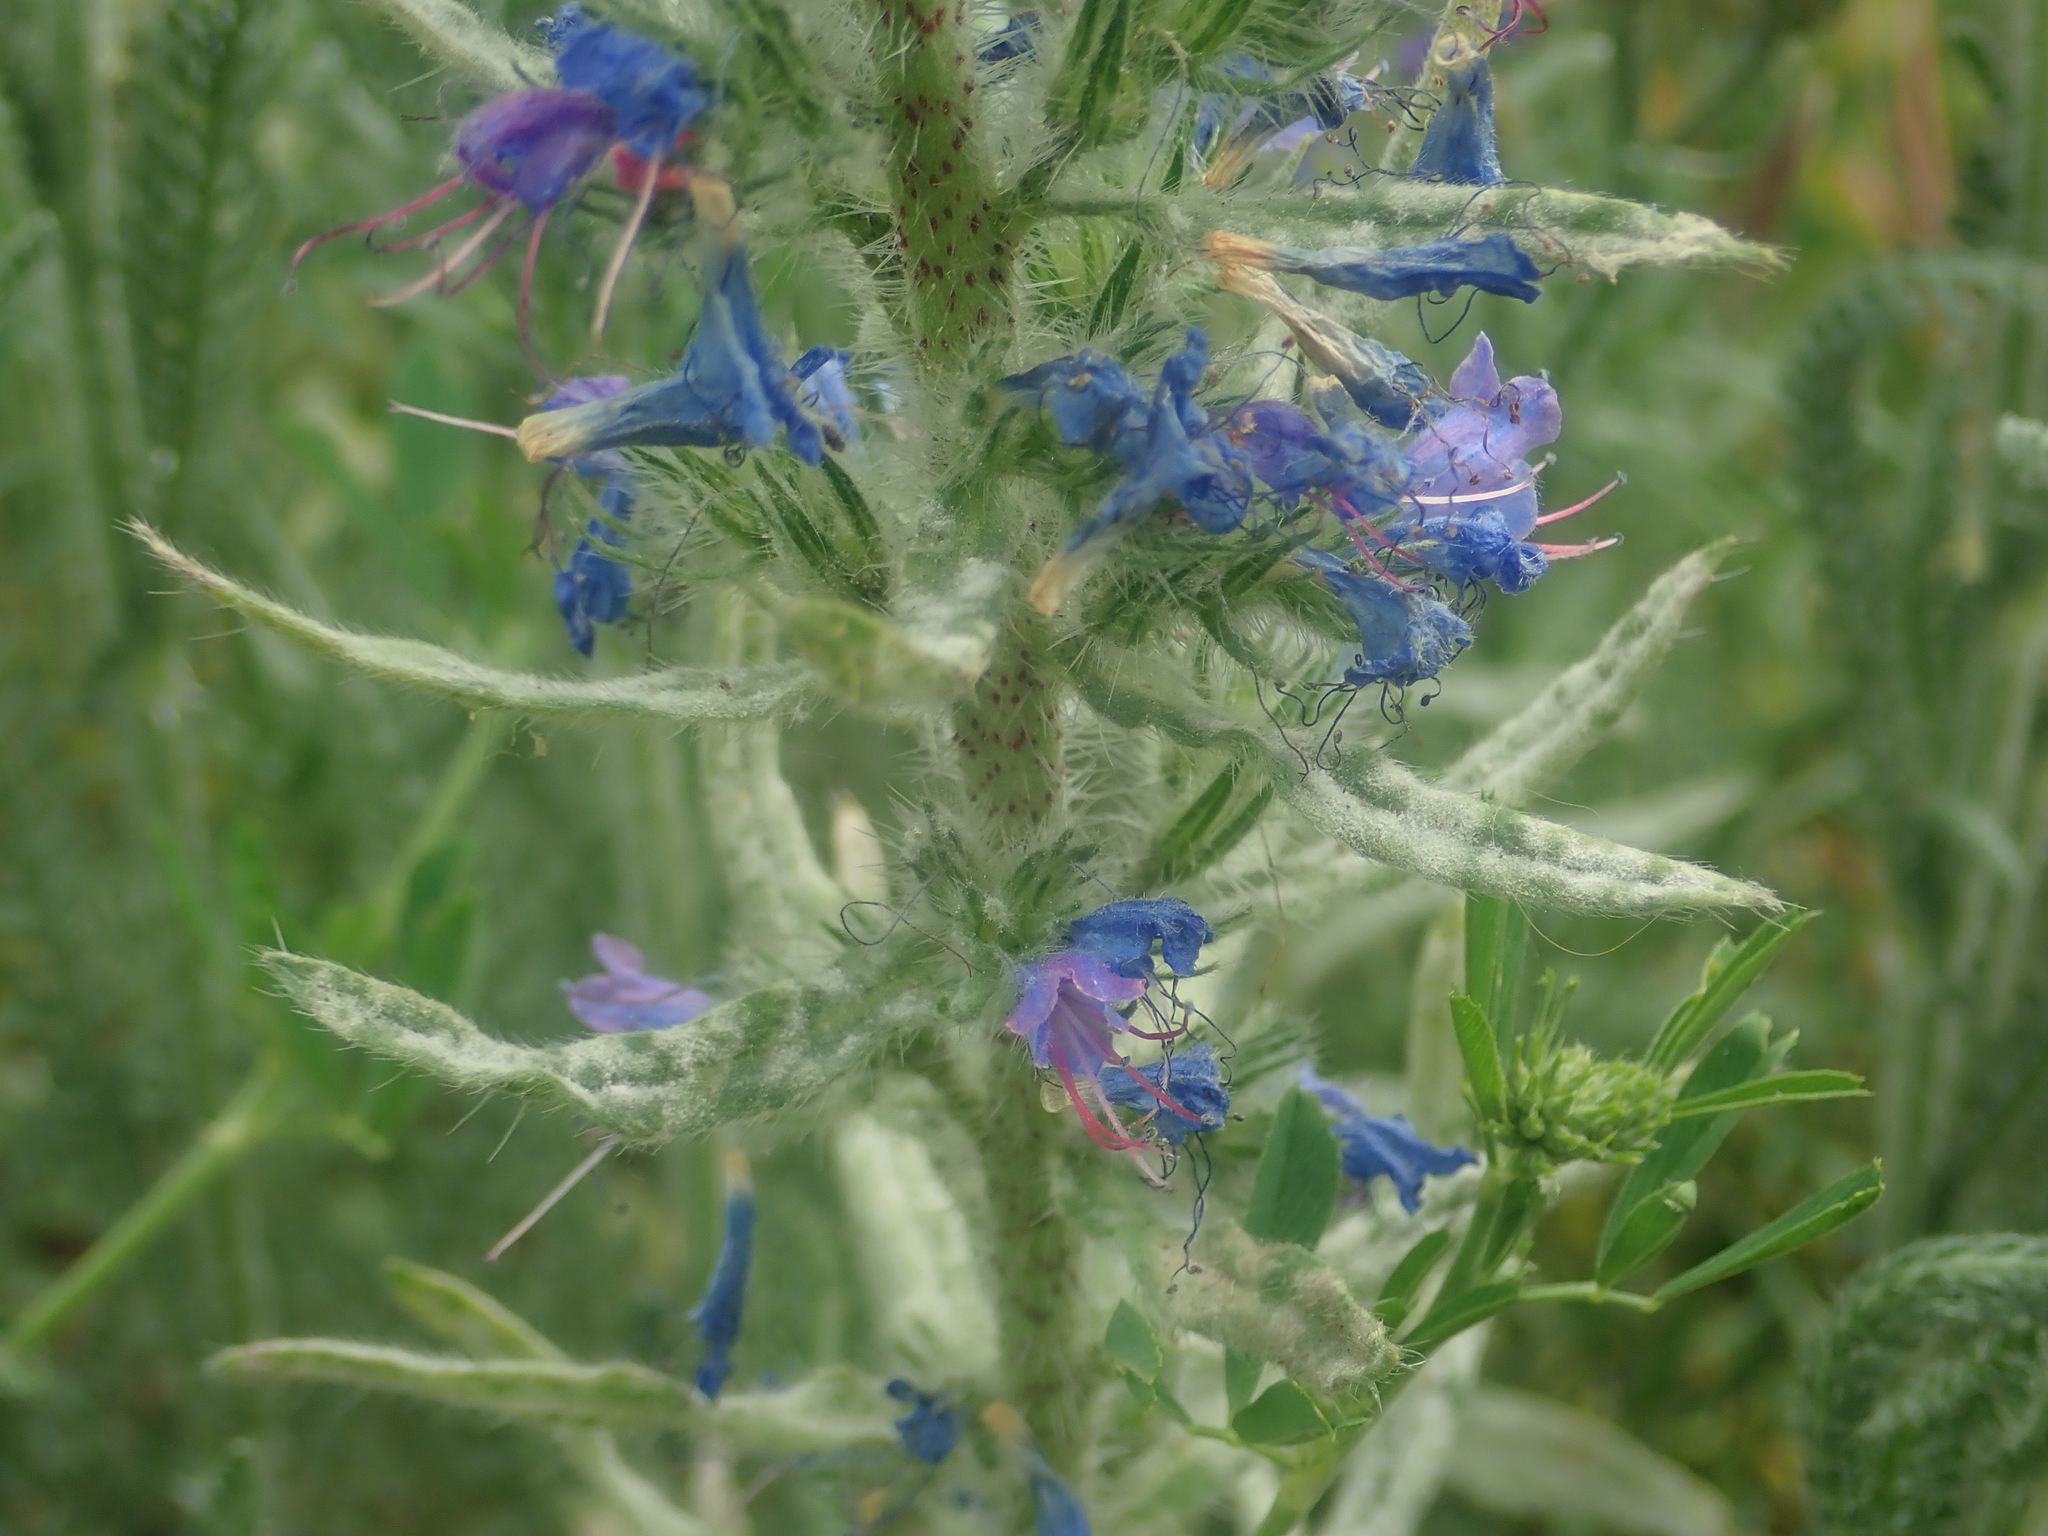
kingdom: Fungi
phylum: Ascomycota
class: Leotiomycetes
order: Helotiales
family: Erysiphaceae
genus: Golovinomyces
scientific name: Golovinomyces asperifolii
